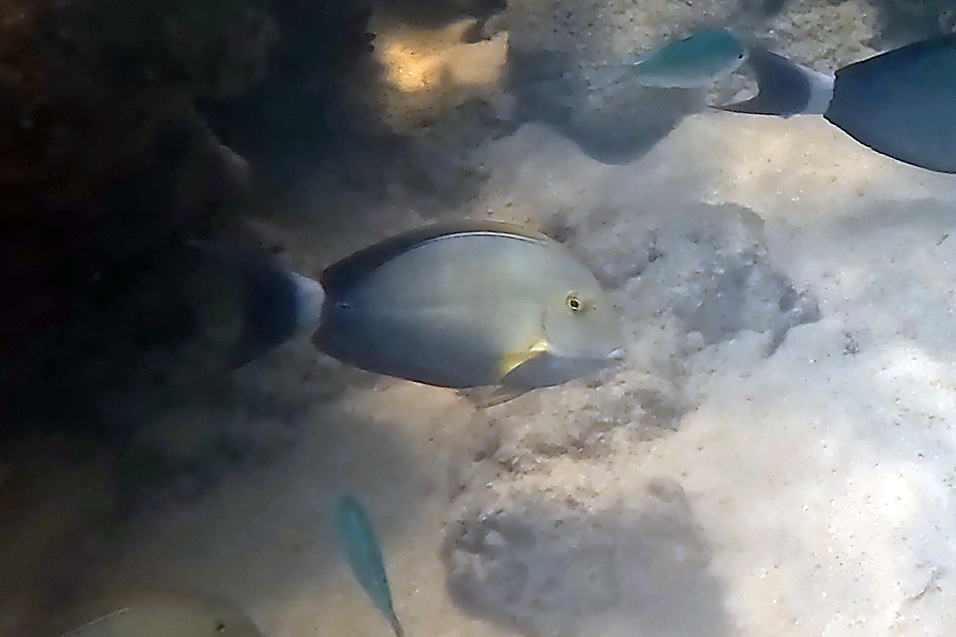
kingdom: Animalia
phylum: Chordata
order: Perciformes
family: Acanthuridae
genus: Acanthurus
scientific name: Acanthurus xanthopterus
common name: Cuvier's surgeonfish
